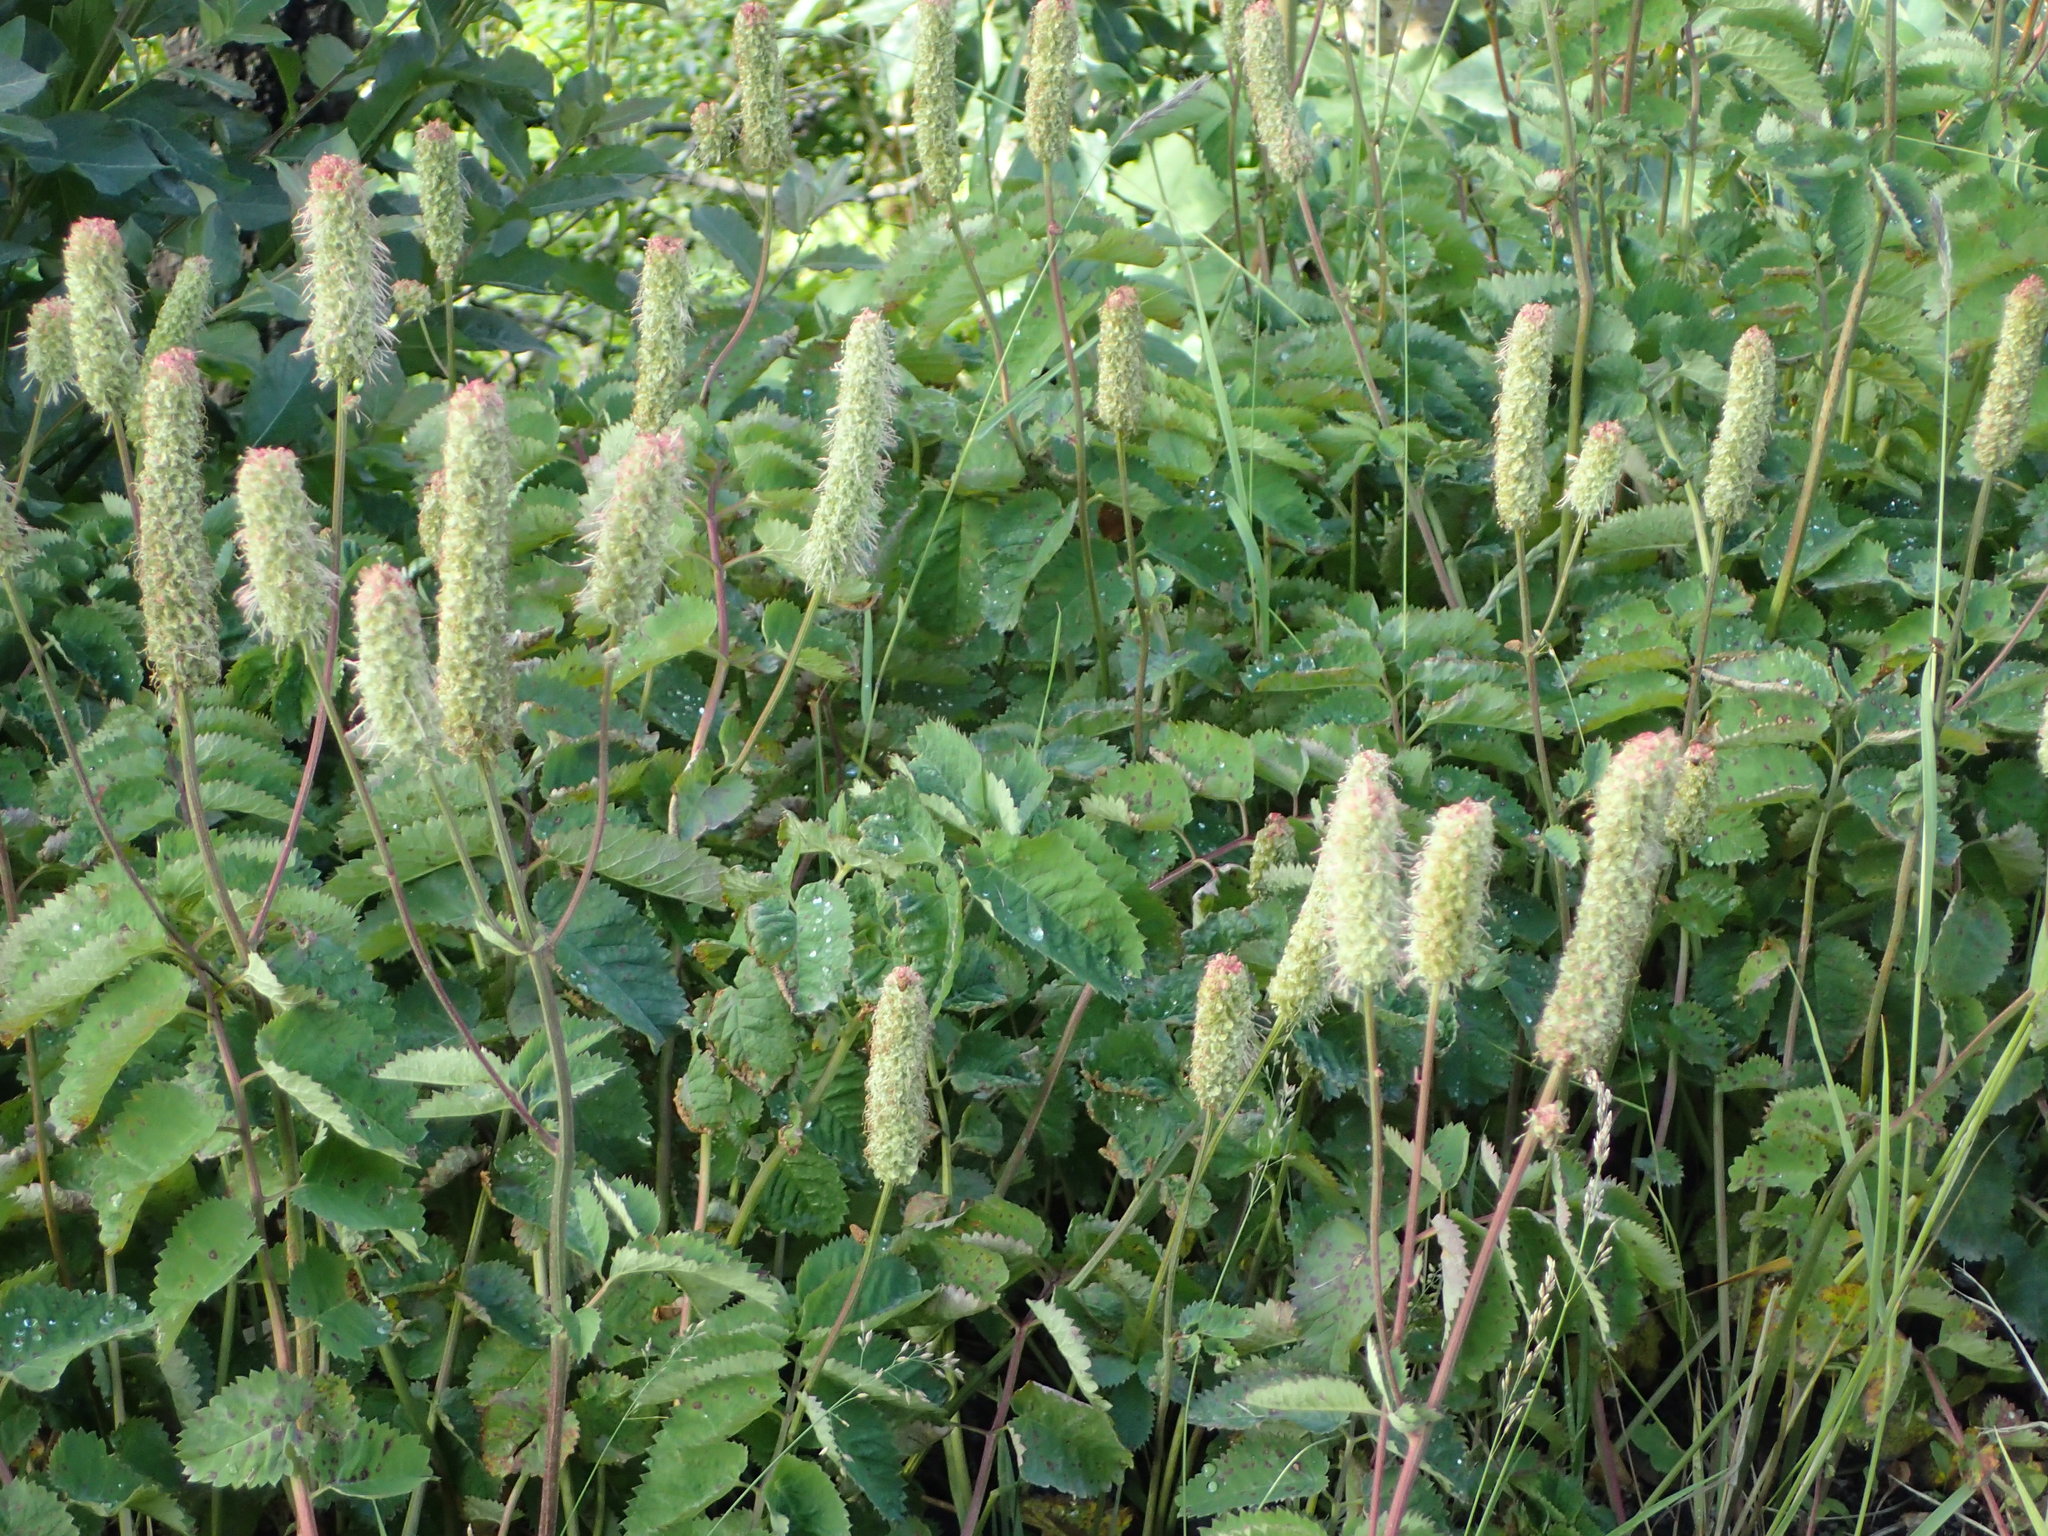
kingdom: Plantae
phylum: Tracheophyta
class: Magnoliopsida
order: Rosales
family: Rosaceae
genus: Sanguisorba
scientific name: Sanguisorba stipulata
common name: Sitka burnet
